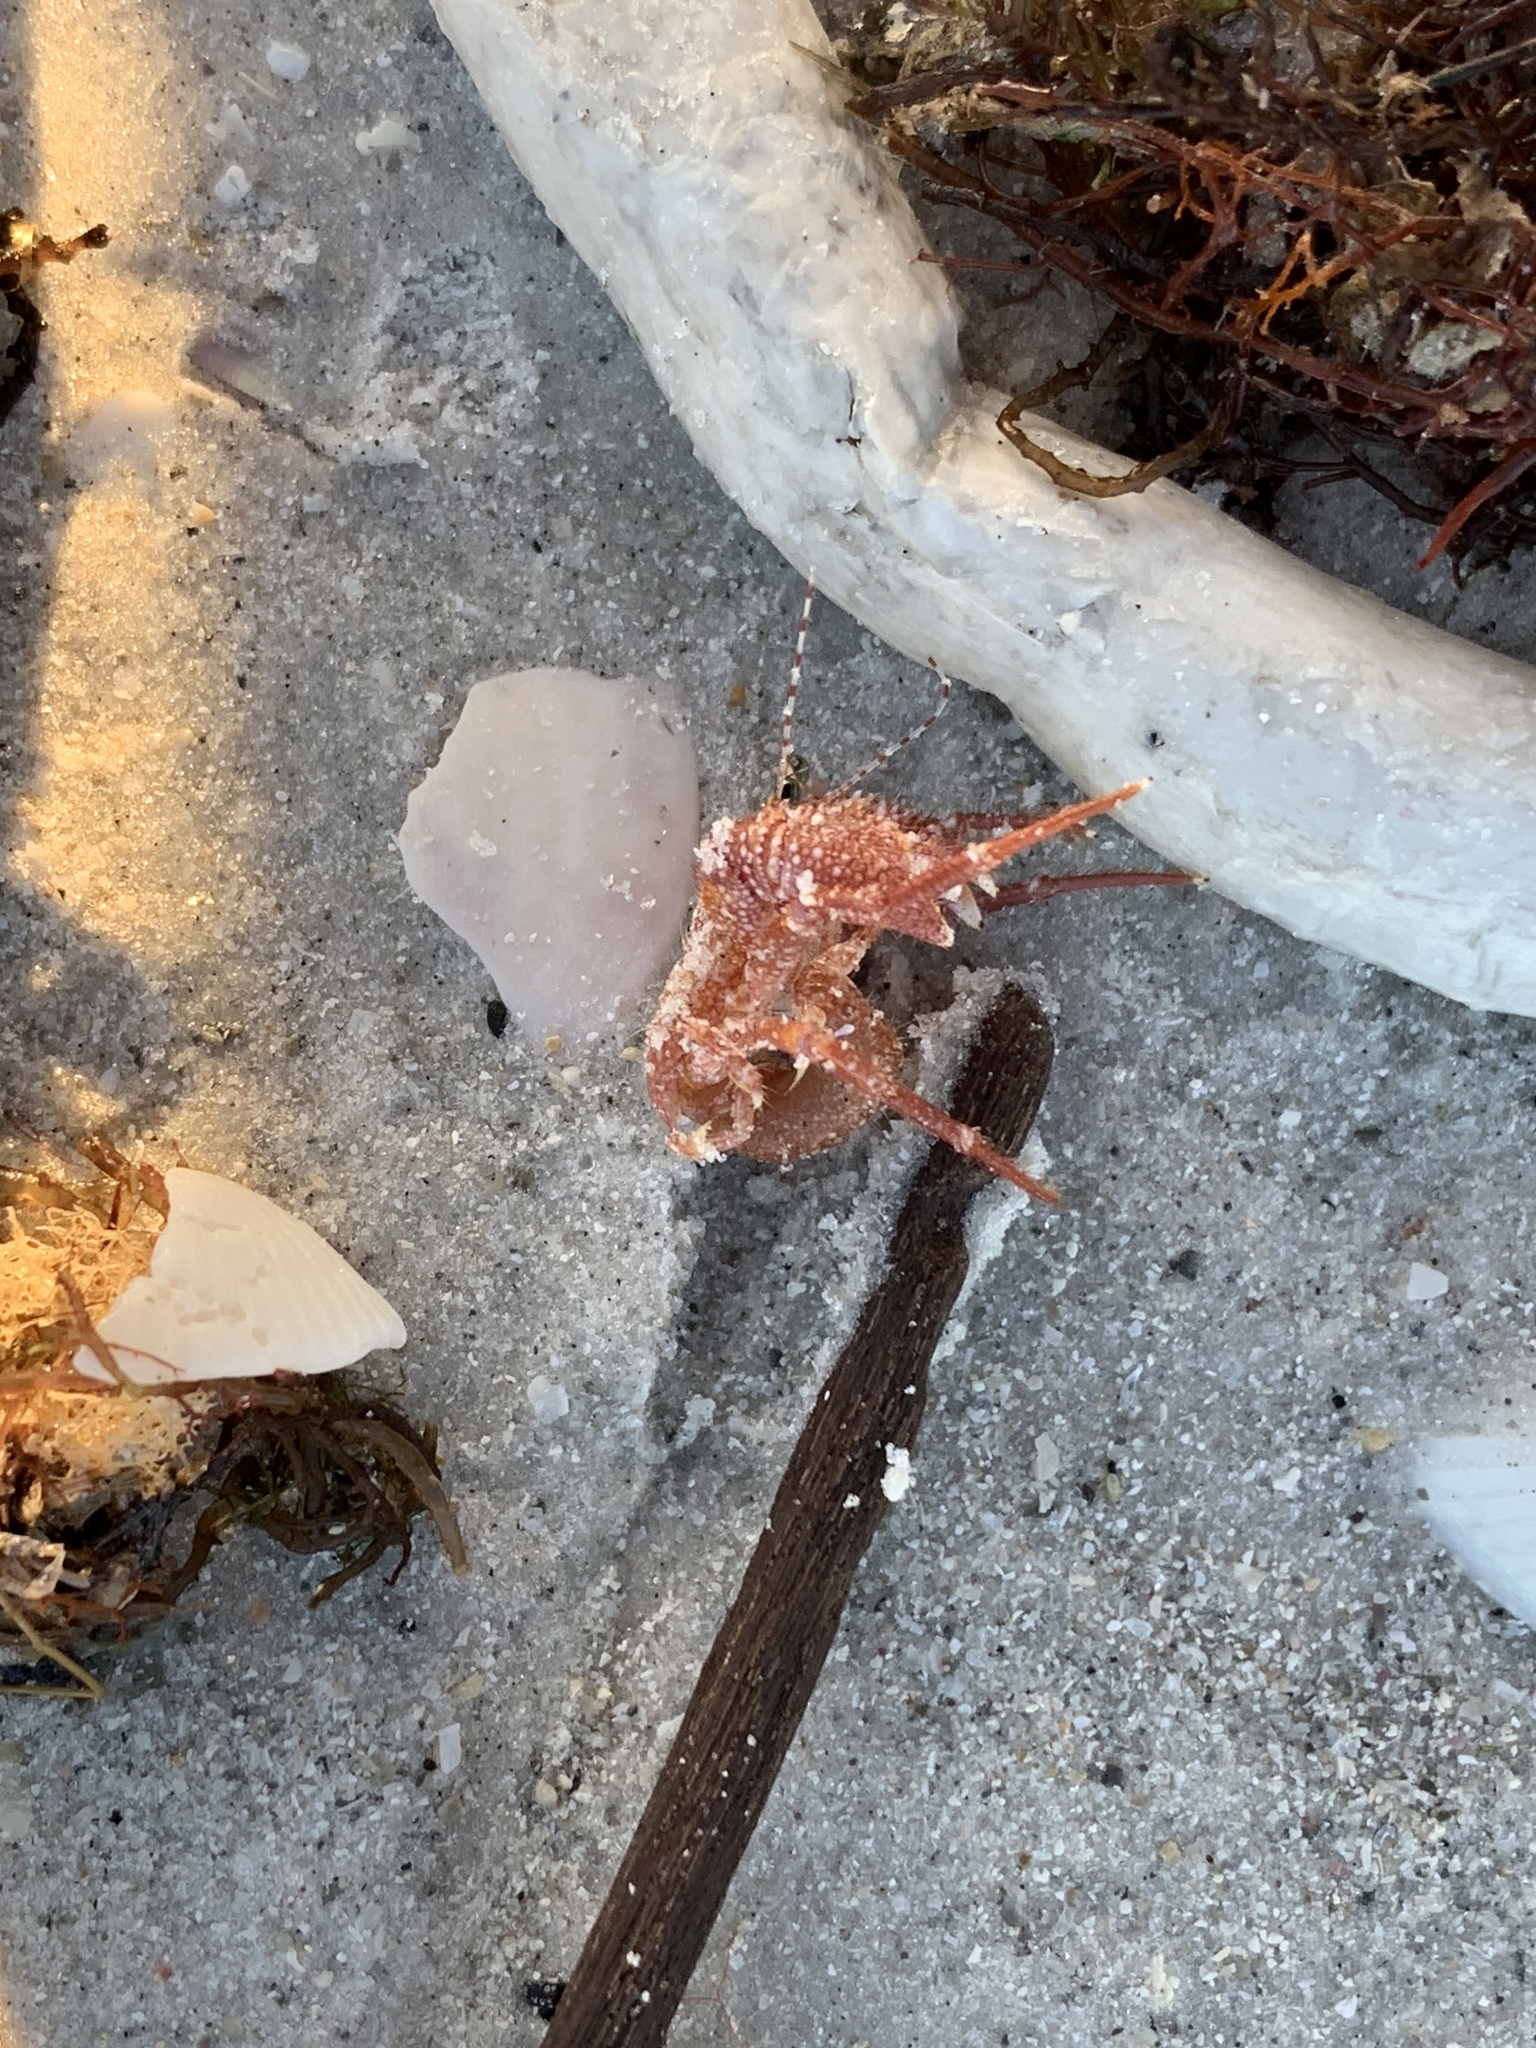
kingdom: Animalia
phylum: Arthropoda
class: Malacostraca
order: Decapoda
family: Diogenidae
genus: Petrochirus
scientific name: Petrochirus diogenes
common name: Giant hermit crab
